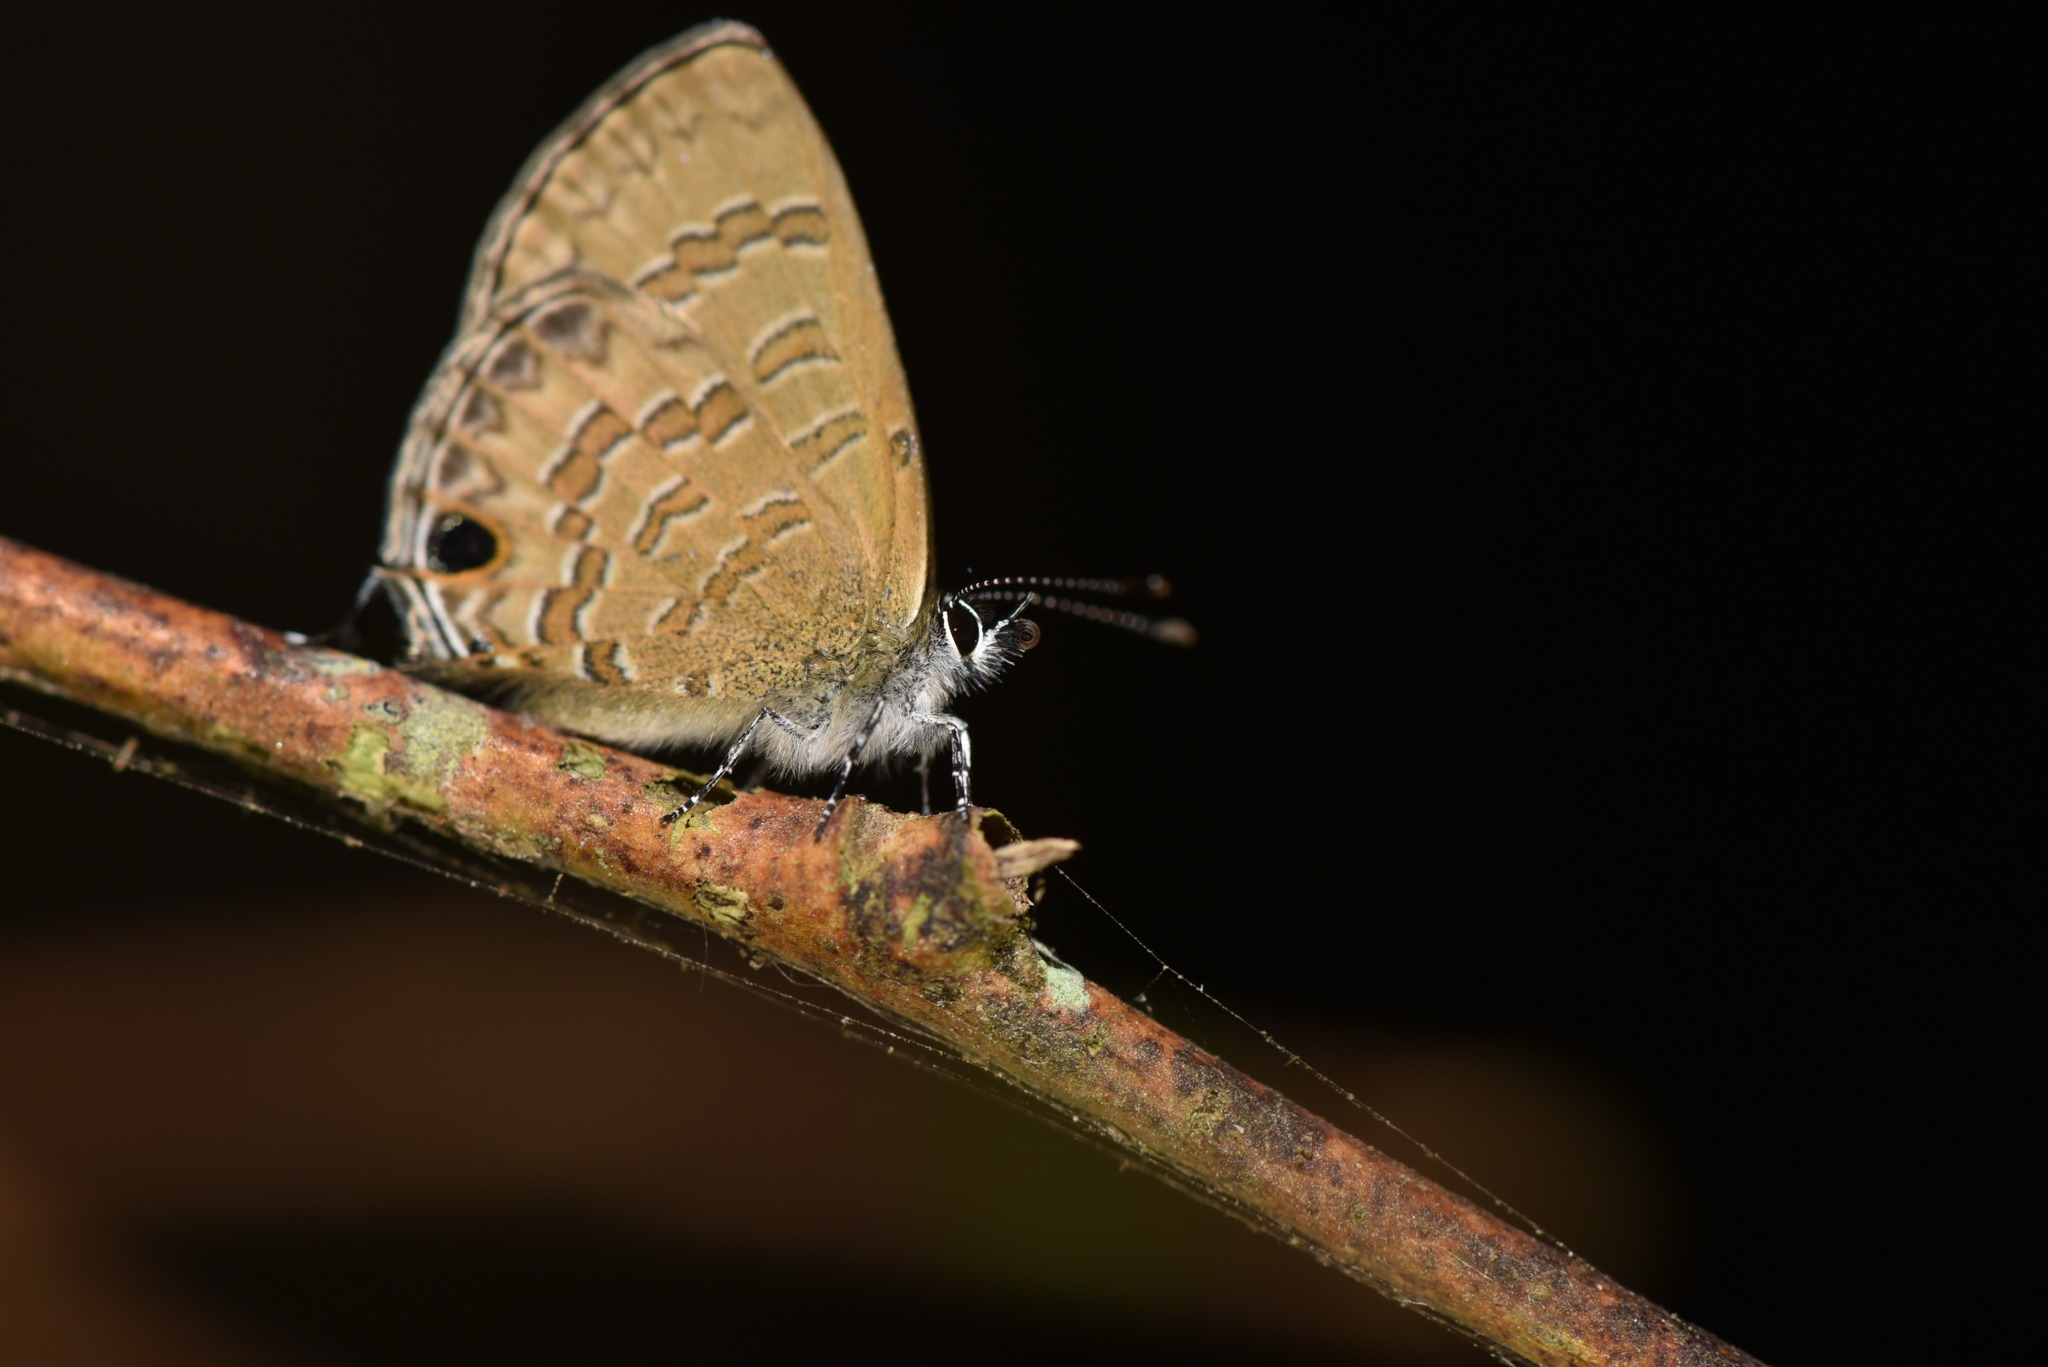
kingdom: Animalia
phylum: Arthropoda
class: Insecta
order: Lepidoptera
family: Lycaenidae
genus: Prosotas
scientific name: Prosotas nora
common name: Common line blue
